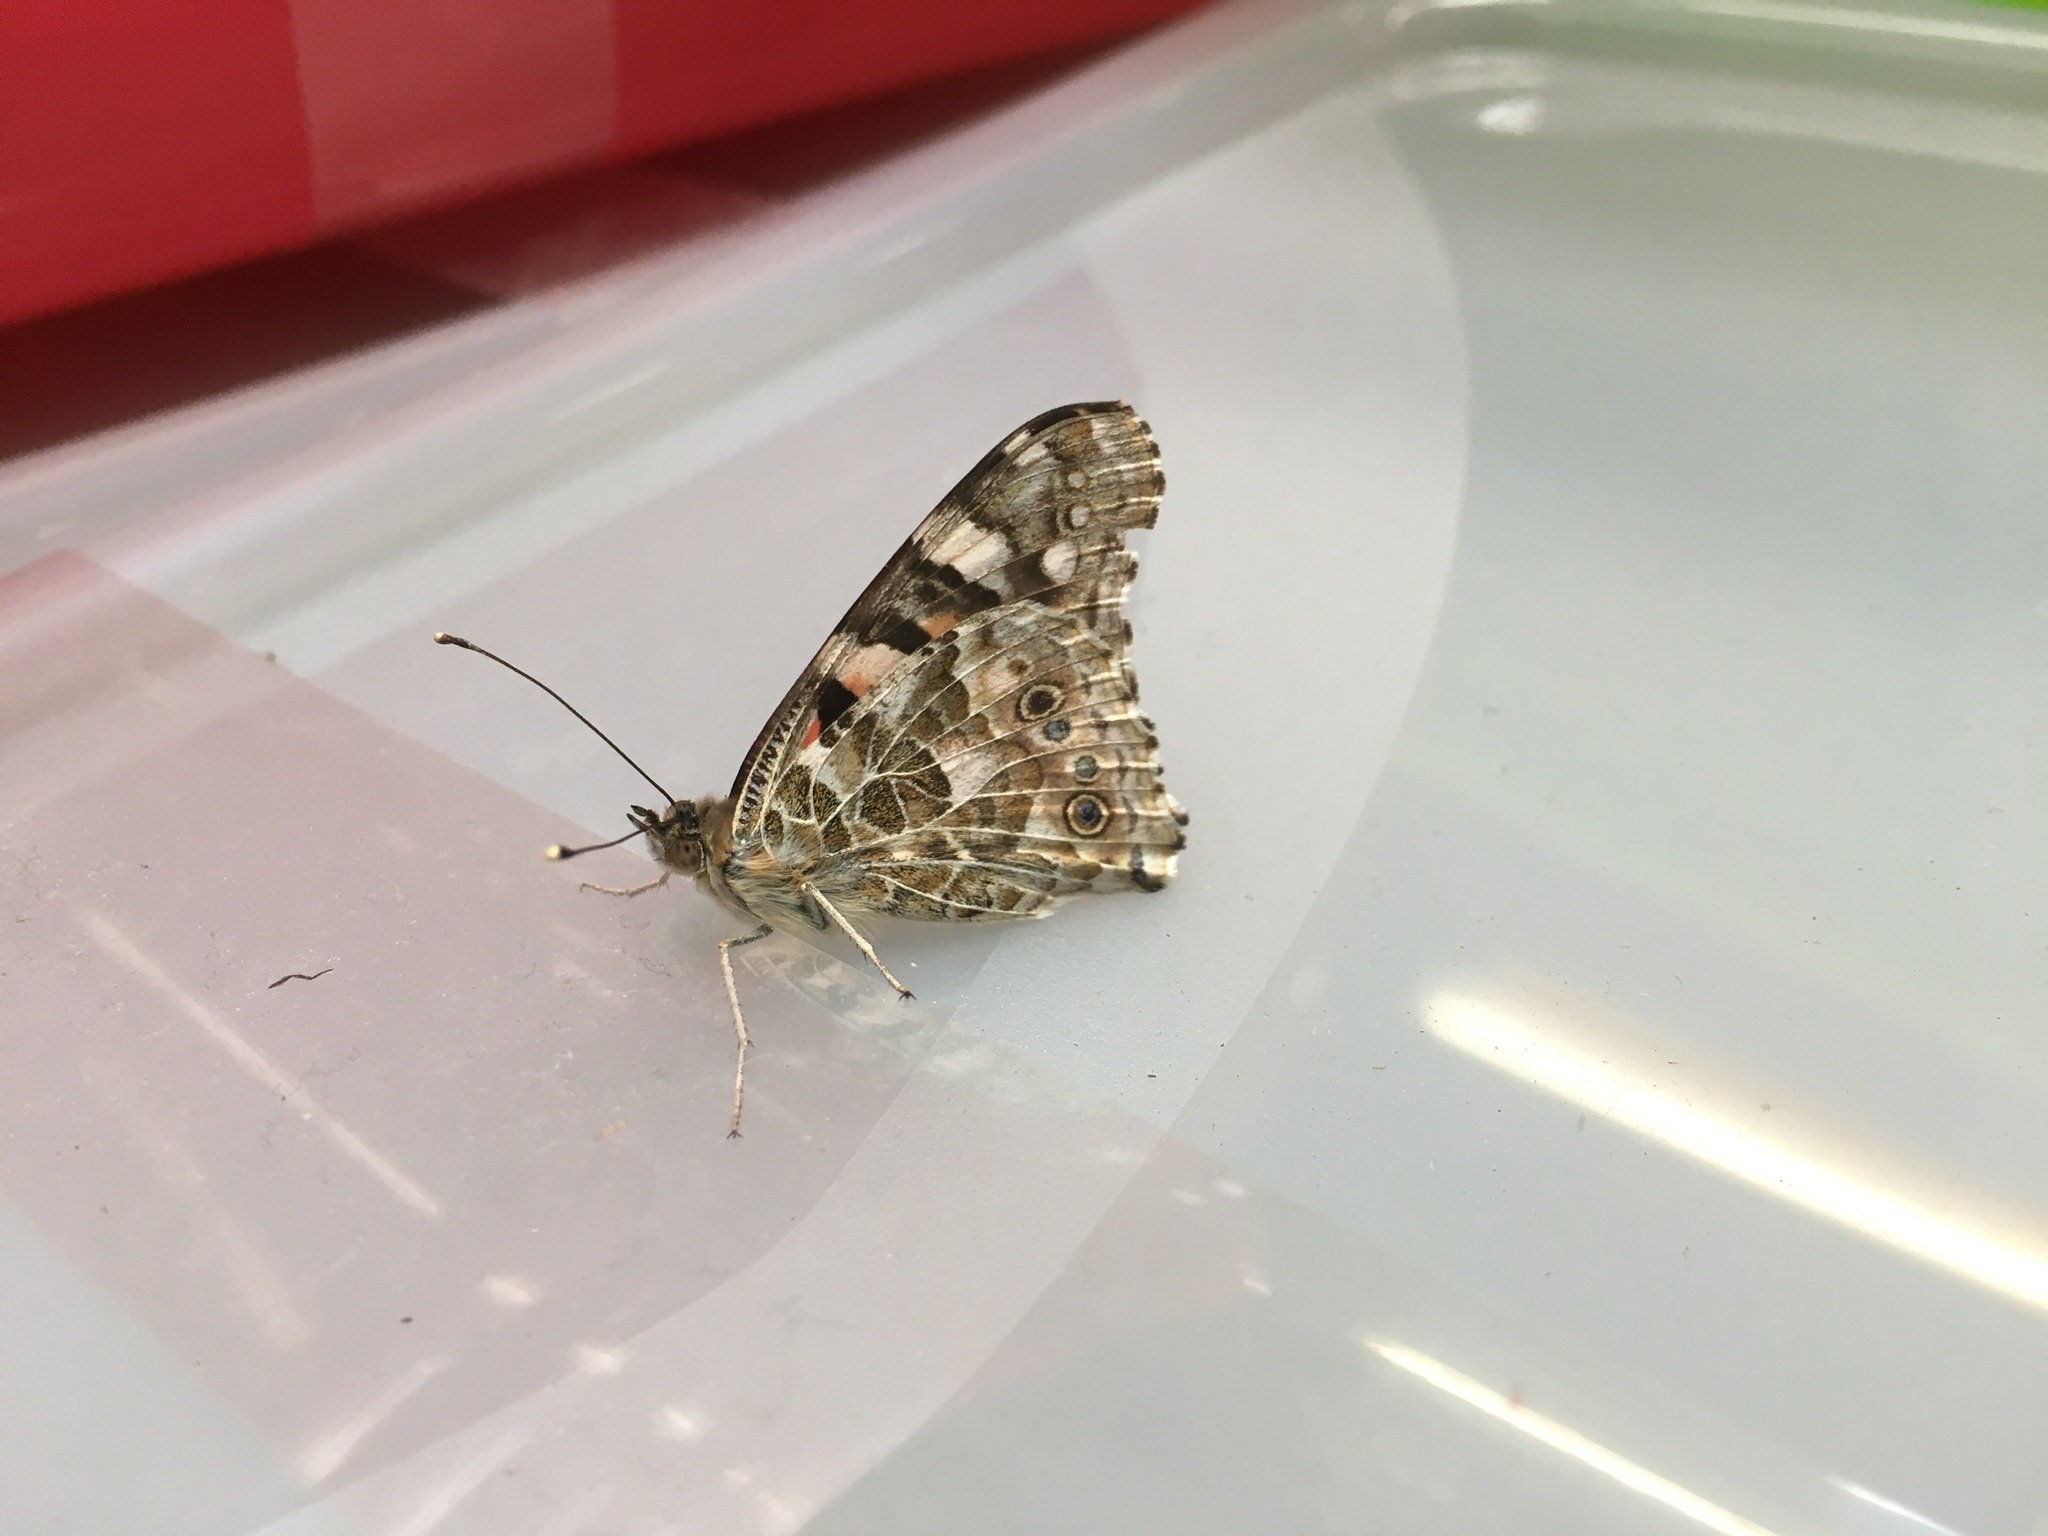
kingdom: Animalia
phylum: Arthropoda
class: Insecta
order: Lepidoptera
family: Nymphalidae
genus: Vanessa
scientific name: Vanessa cardui
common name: Painted lady
